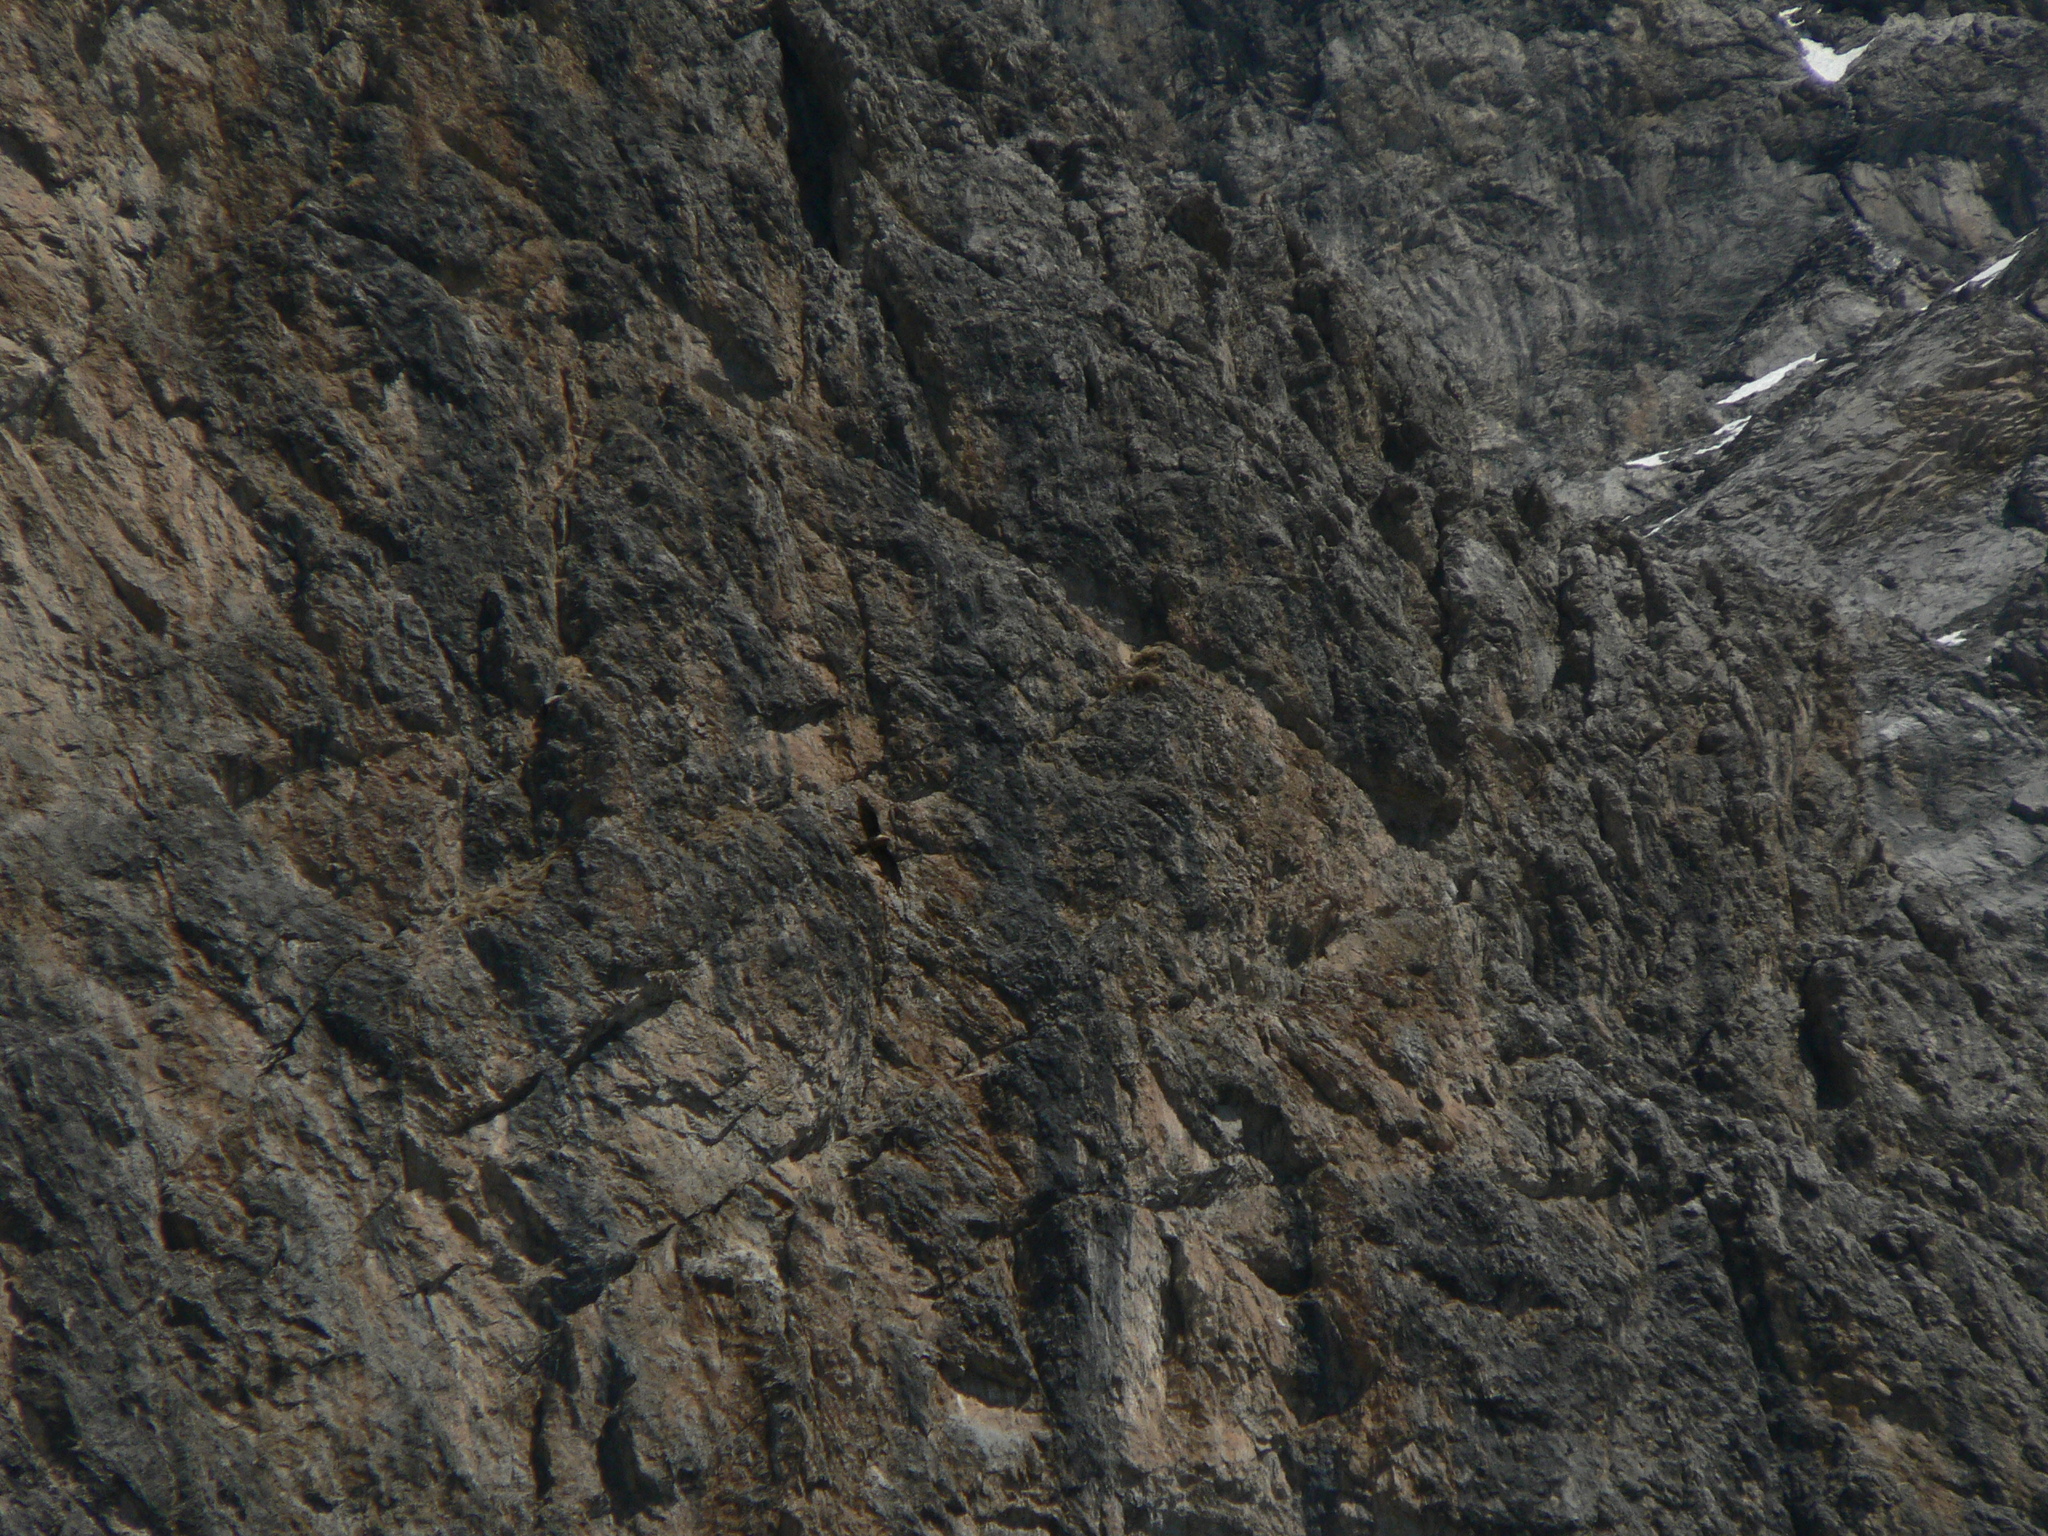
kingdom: Animalia
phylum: Chordata
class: Aves
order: Accipitriformes
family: Accipitridae
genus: Gypaetus
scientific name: Gypaetus barbatus
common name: Bearded vulture
